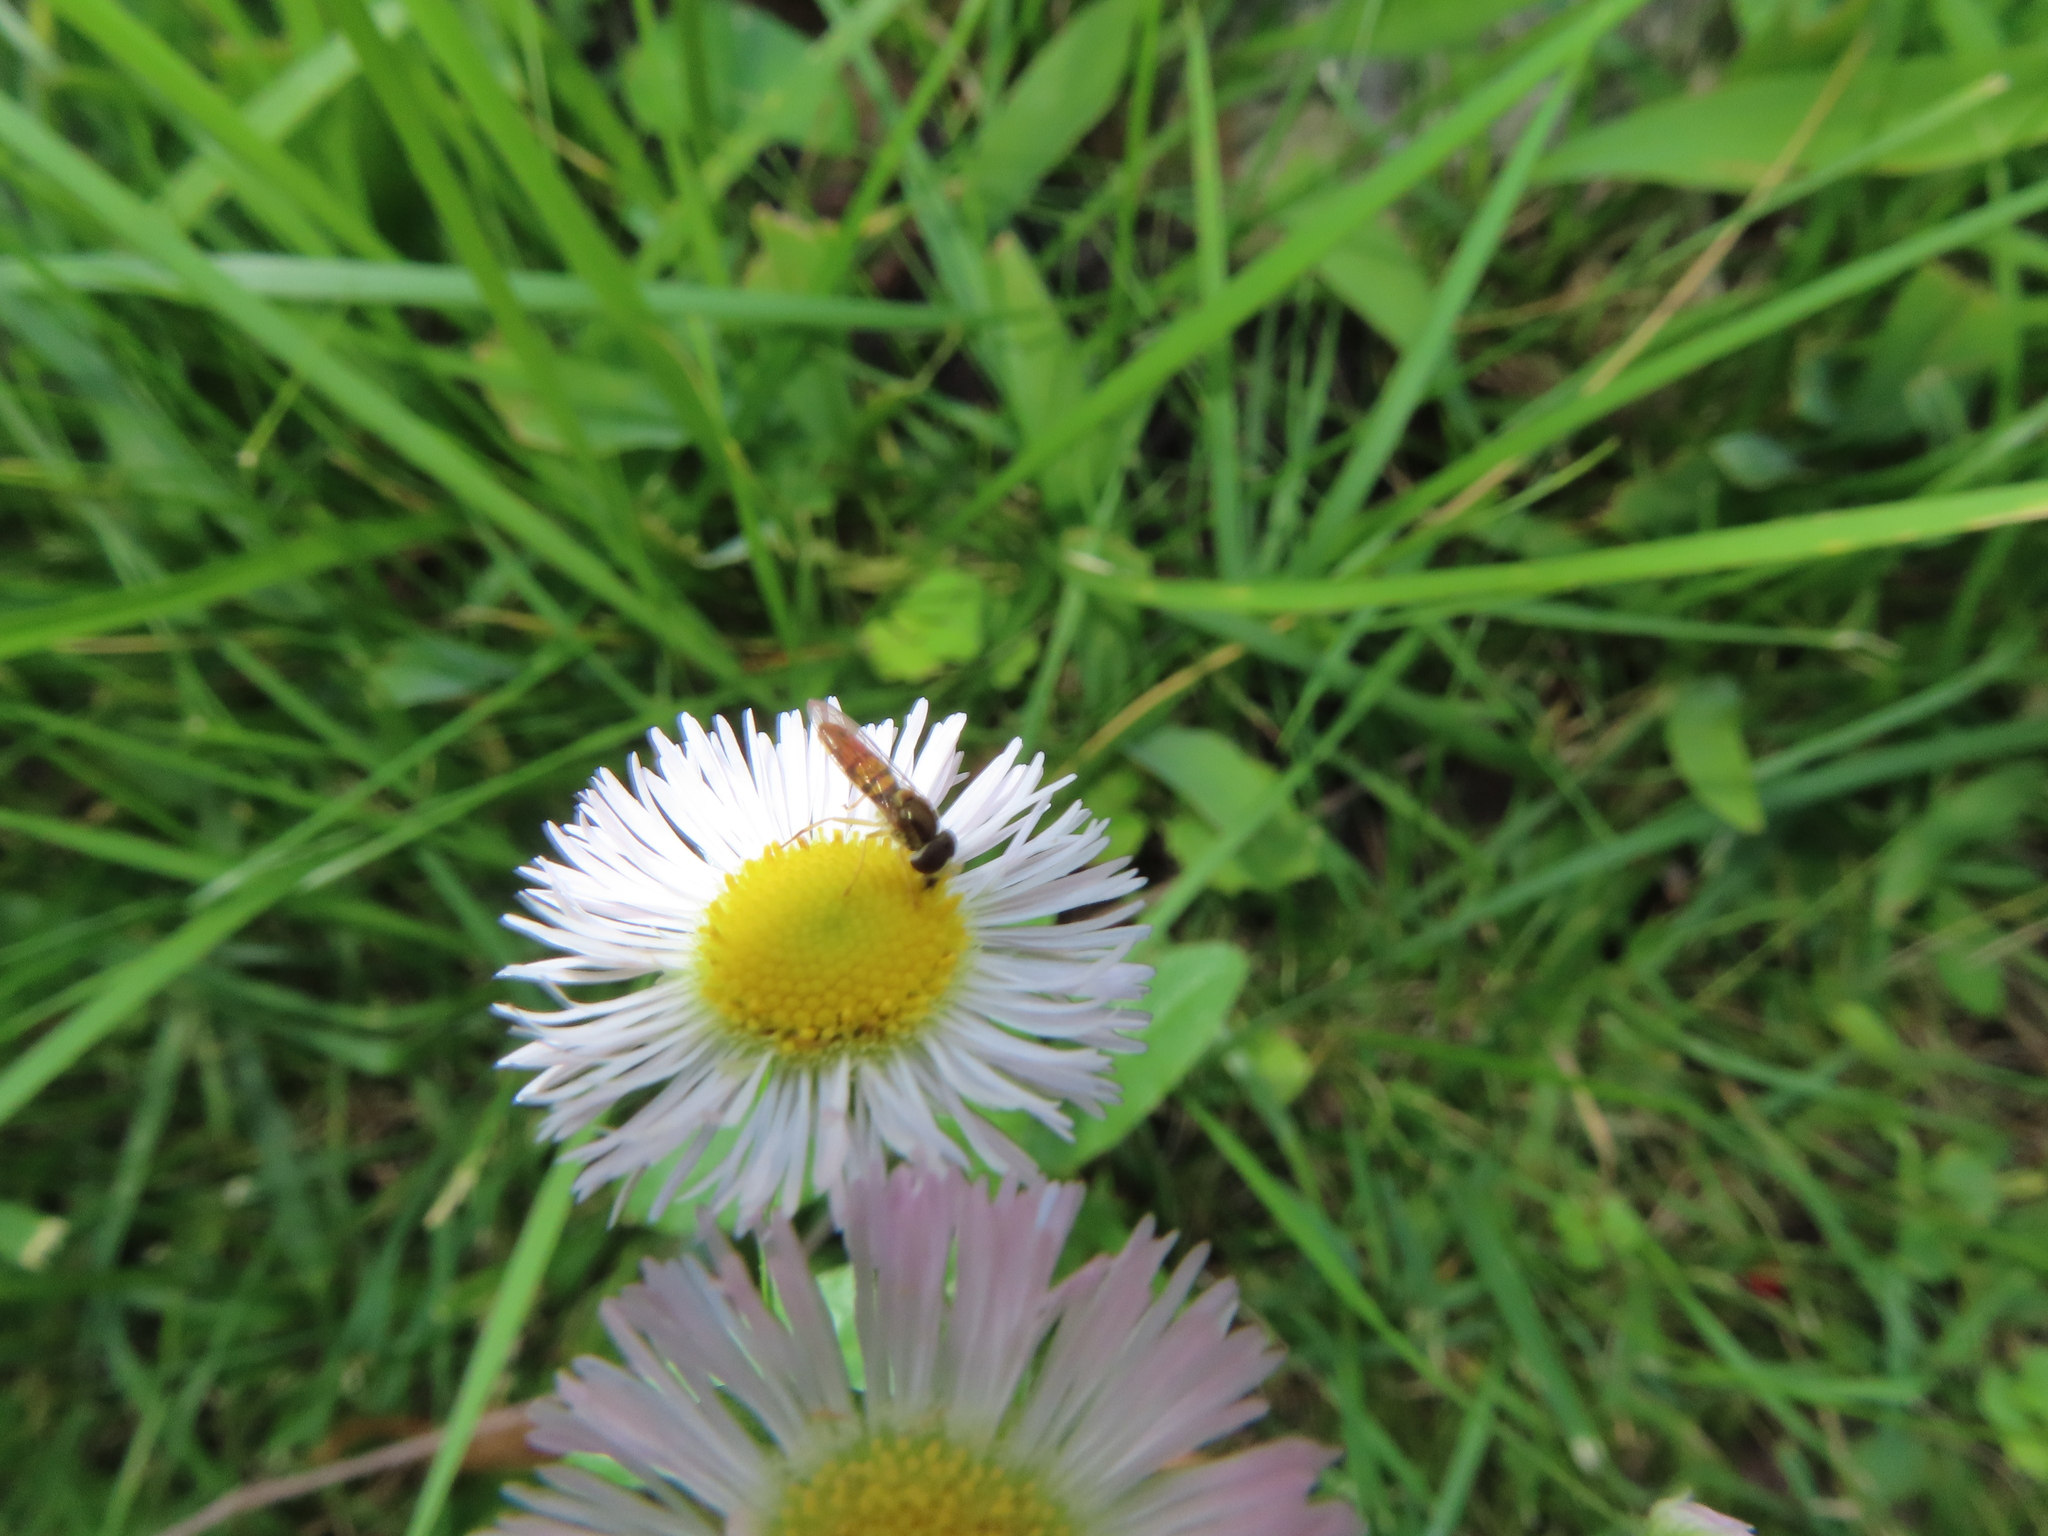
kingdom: Animalia
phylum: Arthropoda
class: Insecta
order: Diptera
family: Syrphidae
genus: Toxomerus
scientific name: Toxomerus marginatus
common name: Syrphid fly
